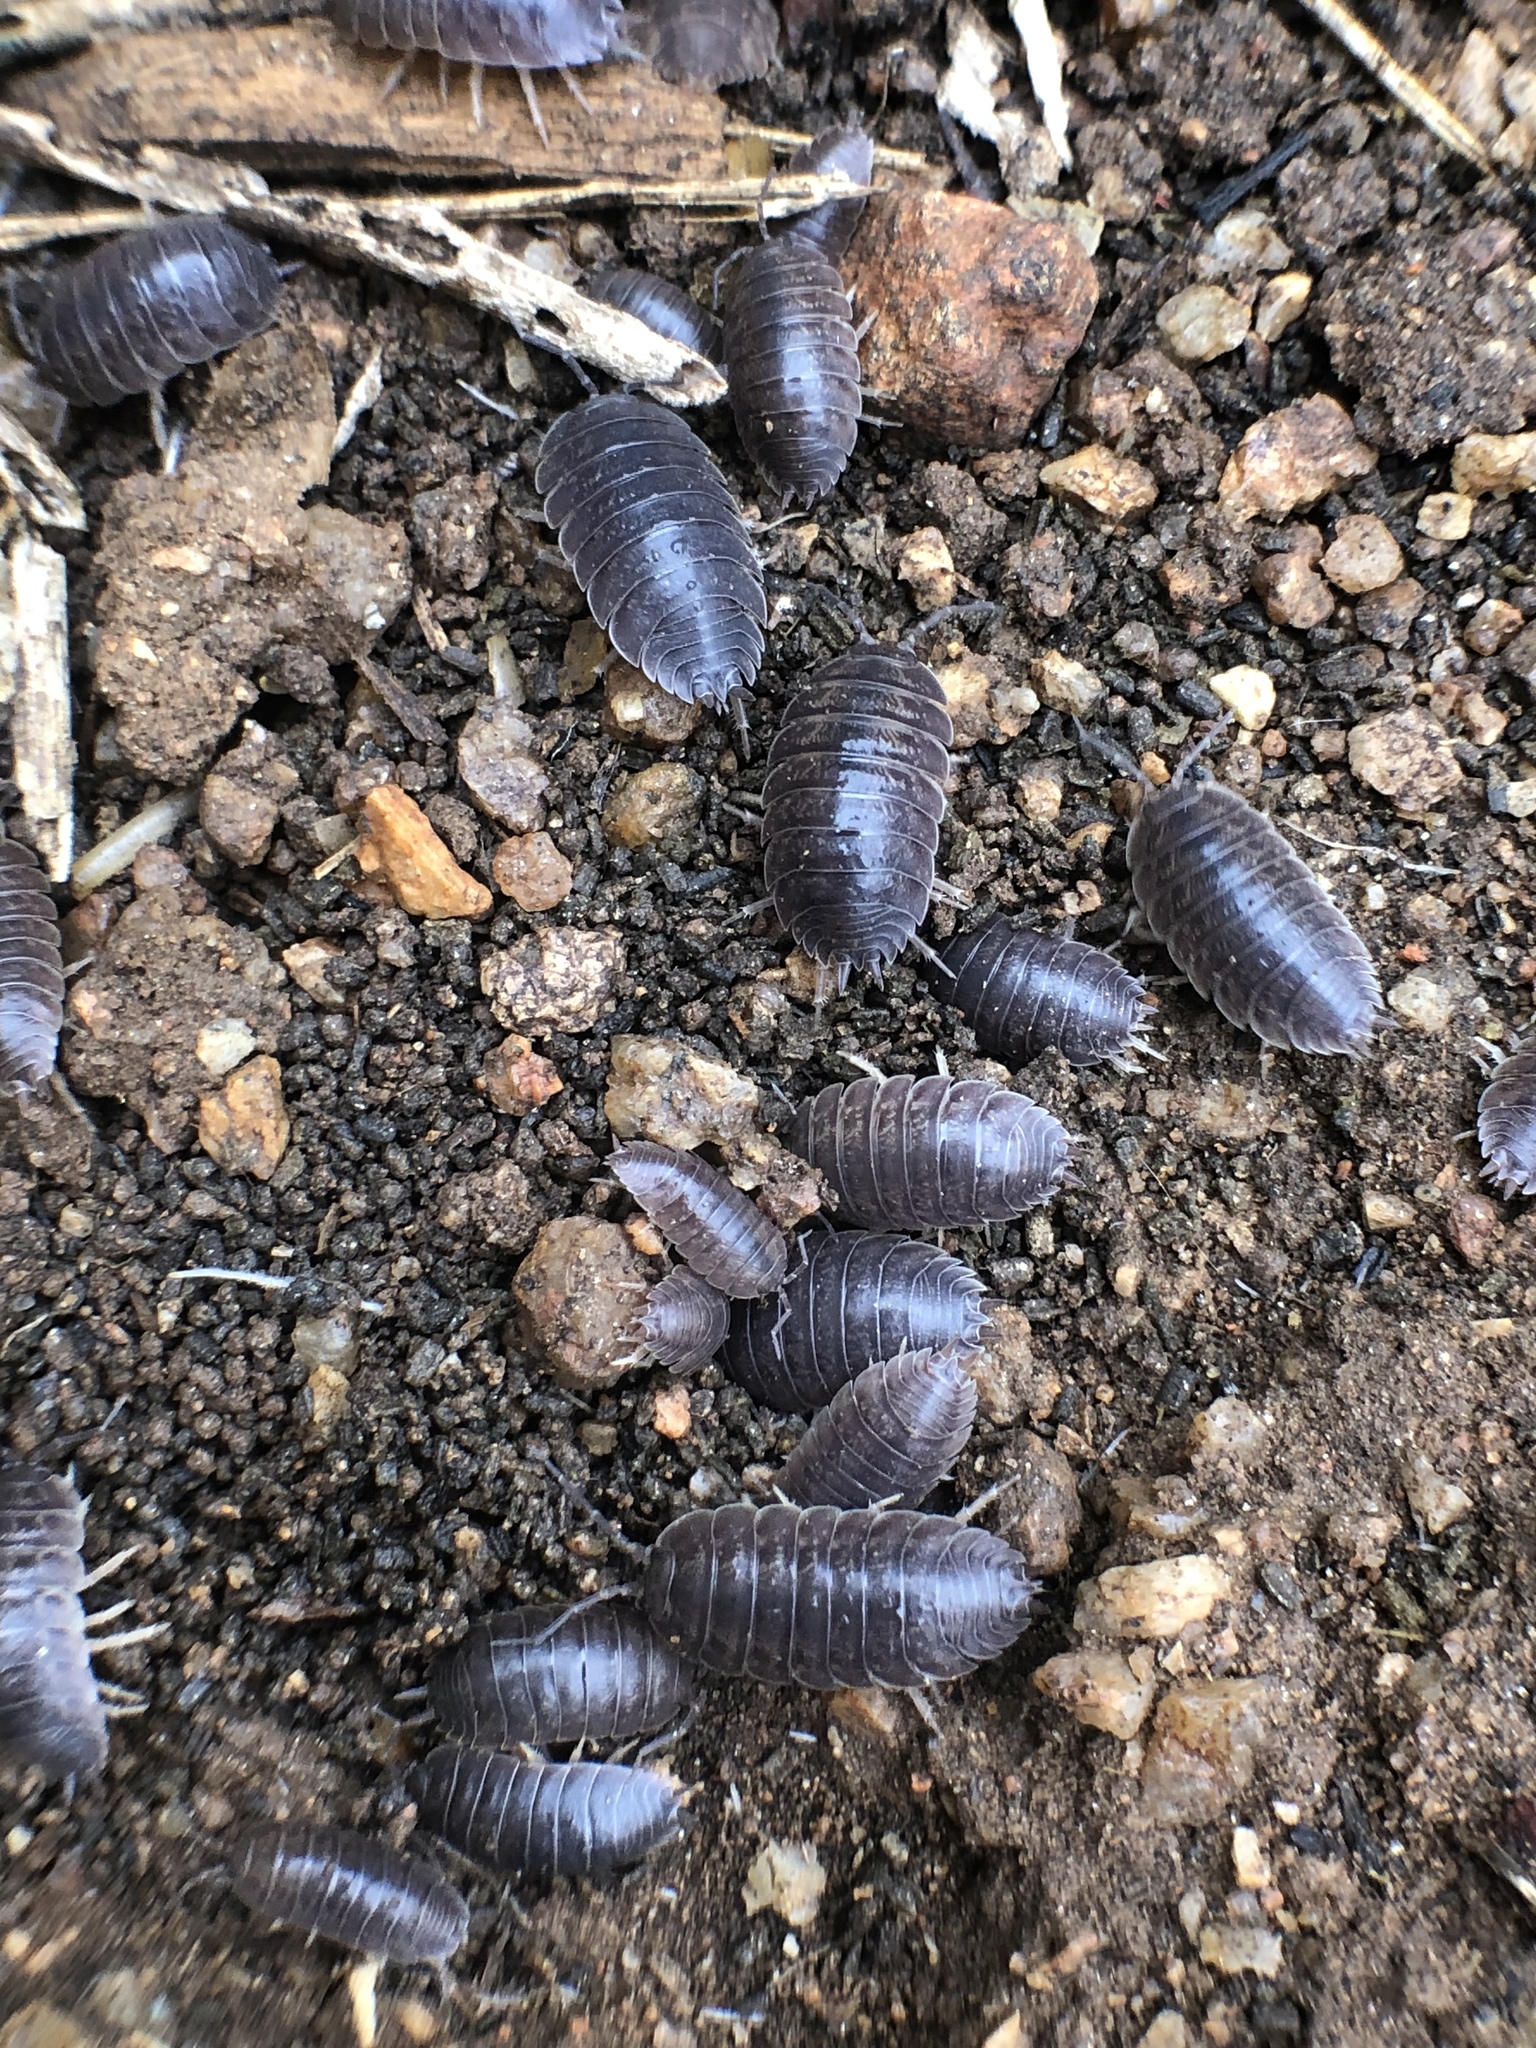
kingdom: Animalia
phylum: Arthropoda
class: Malacostraca
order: Isopoda
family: Porcellionidae
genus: Porcellio
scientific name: Porcellio laevis
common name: Swift woodlouse
